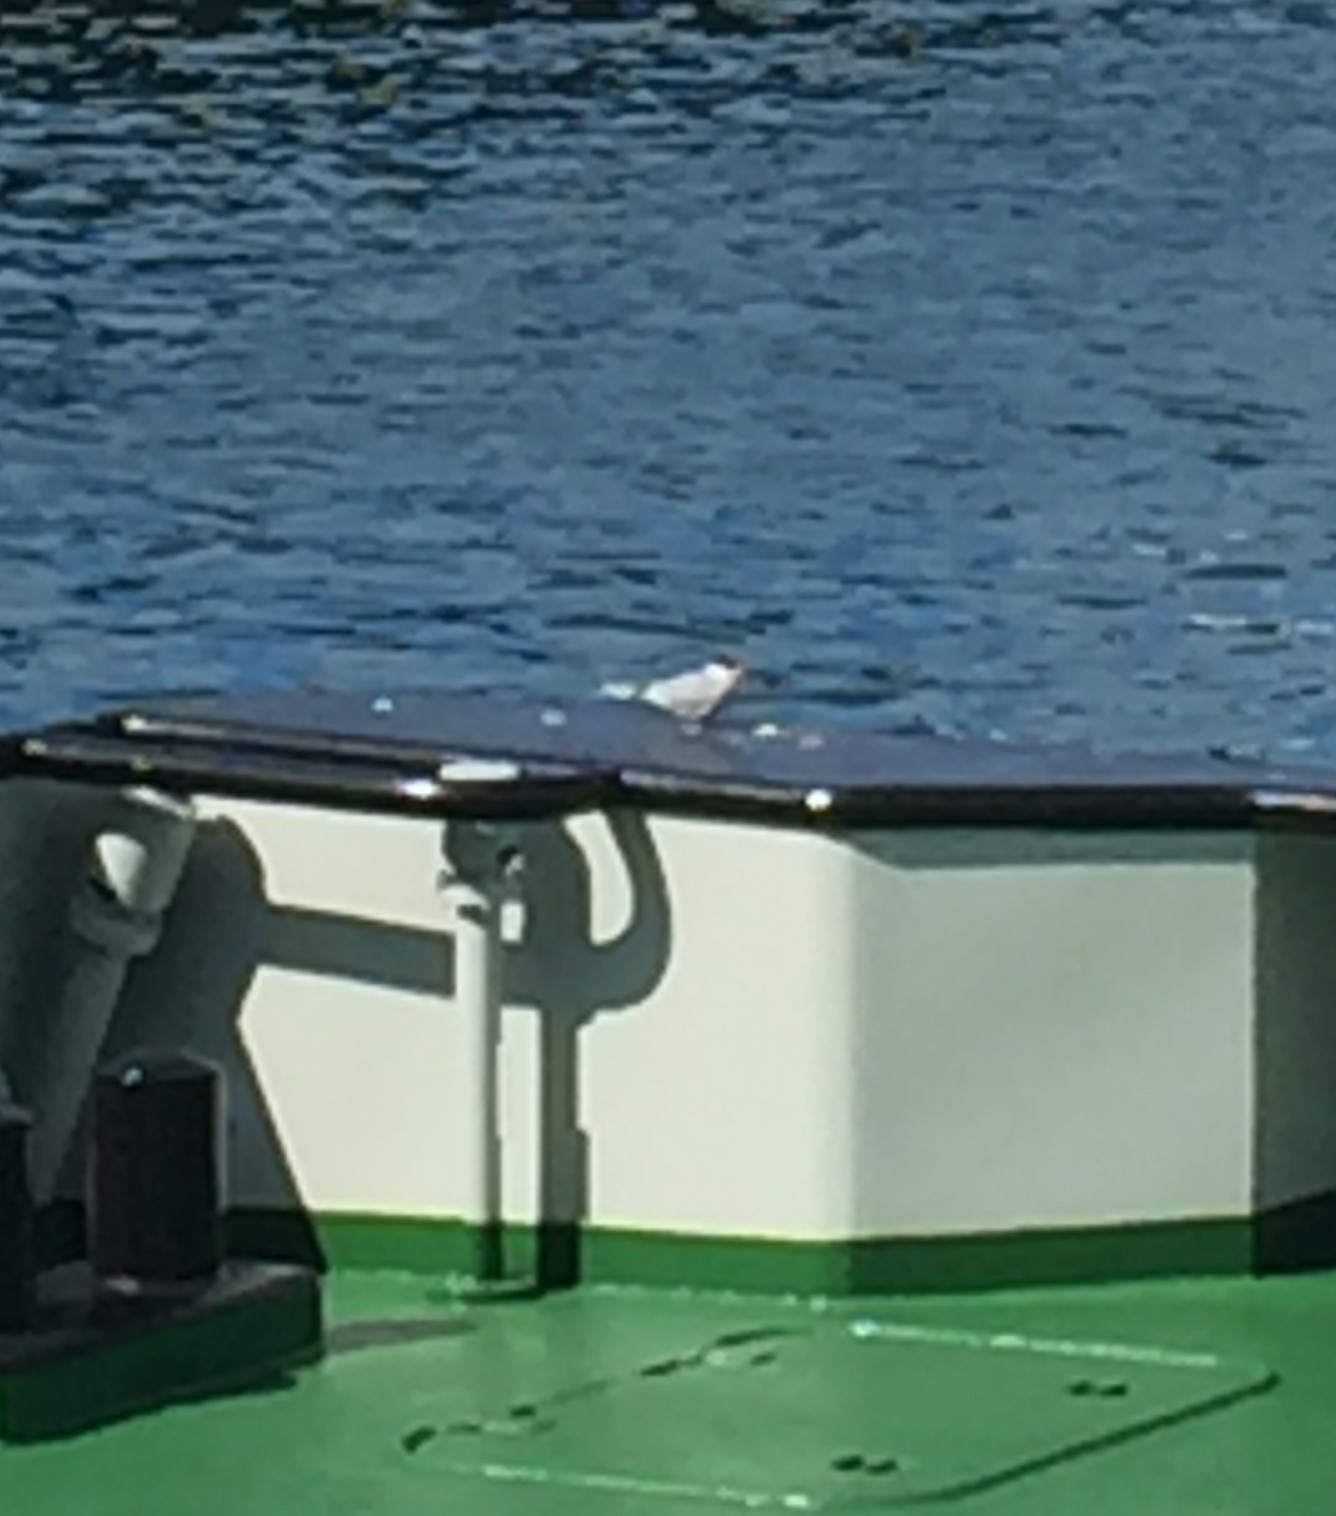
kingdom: Animalia
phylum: Chordata
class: Aves
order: Charadriiformes
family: Laridae
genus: Sterna
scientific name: Sterna paradisaea
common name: Arctic tern
